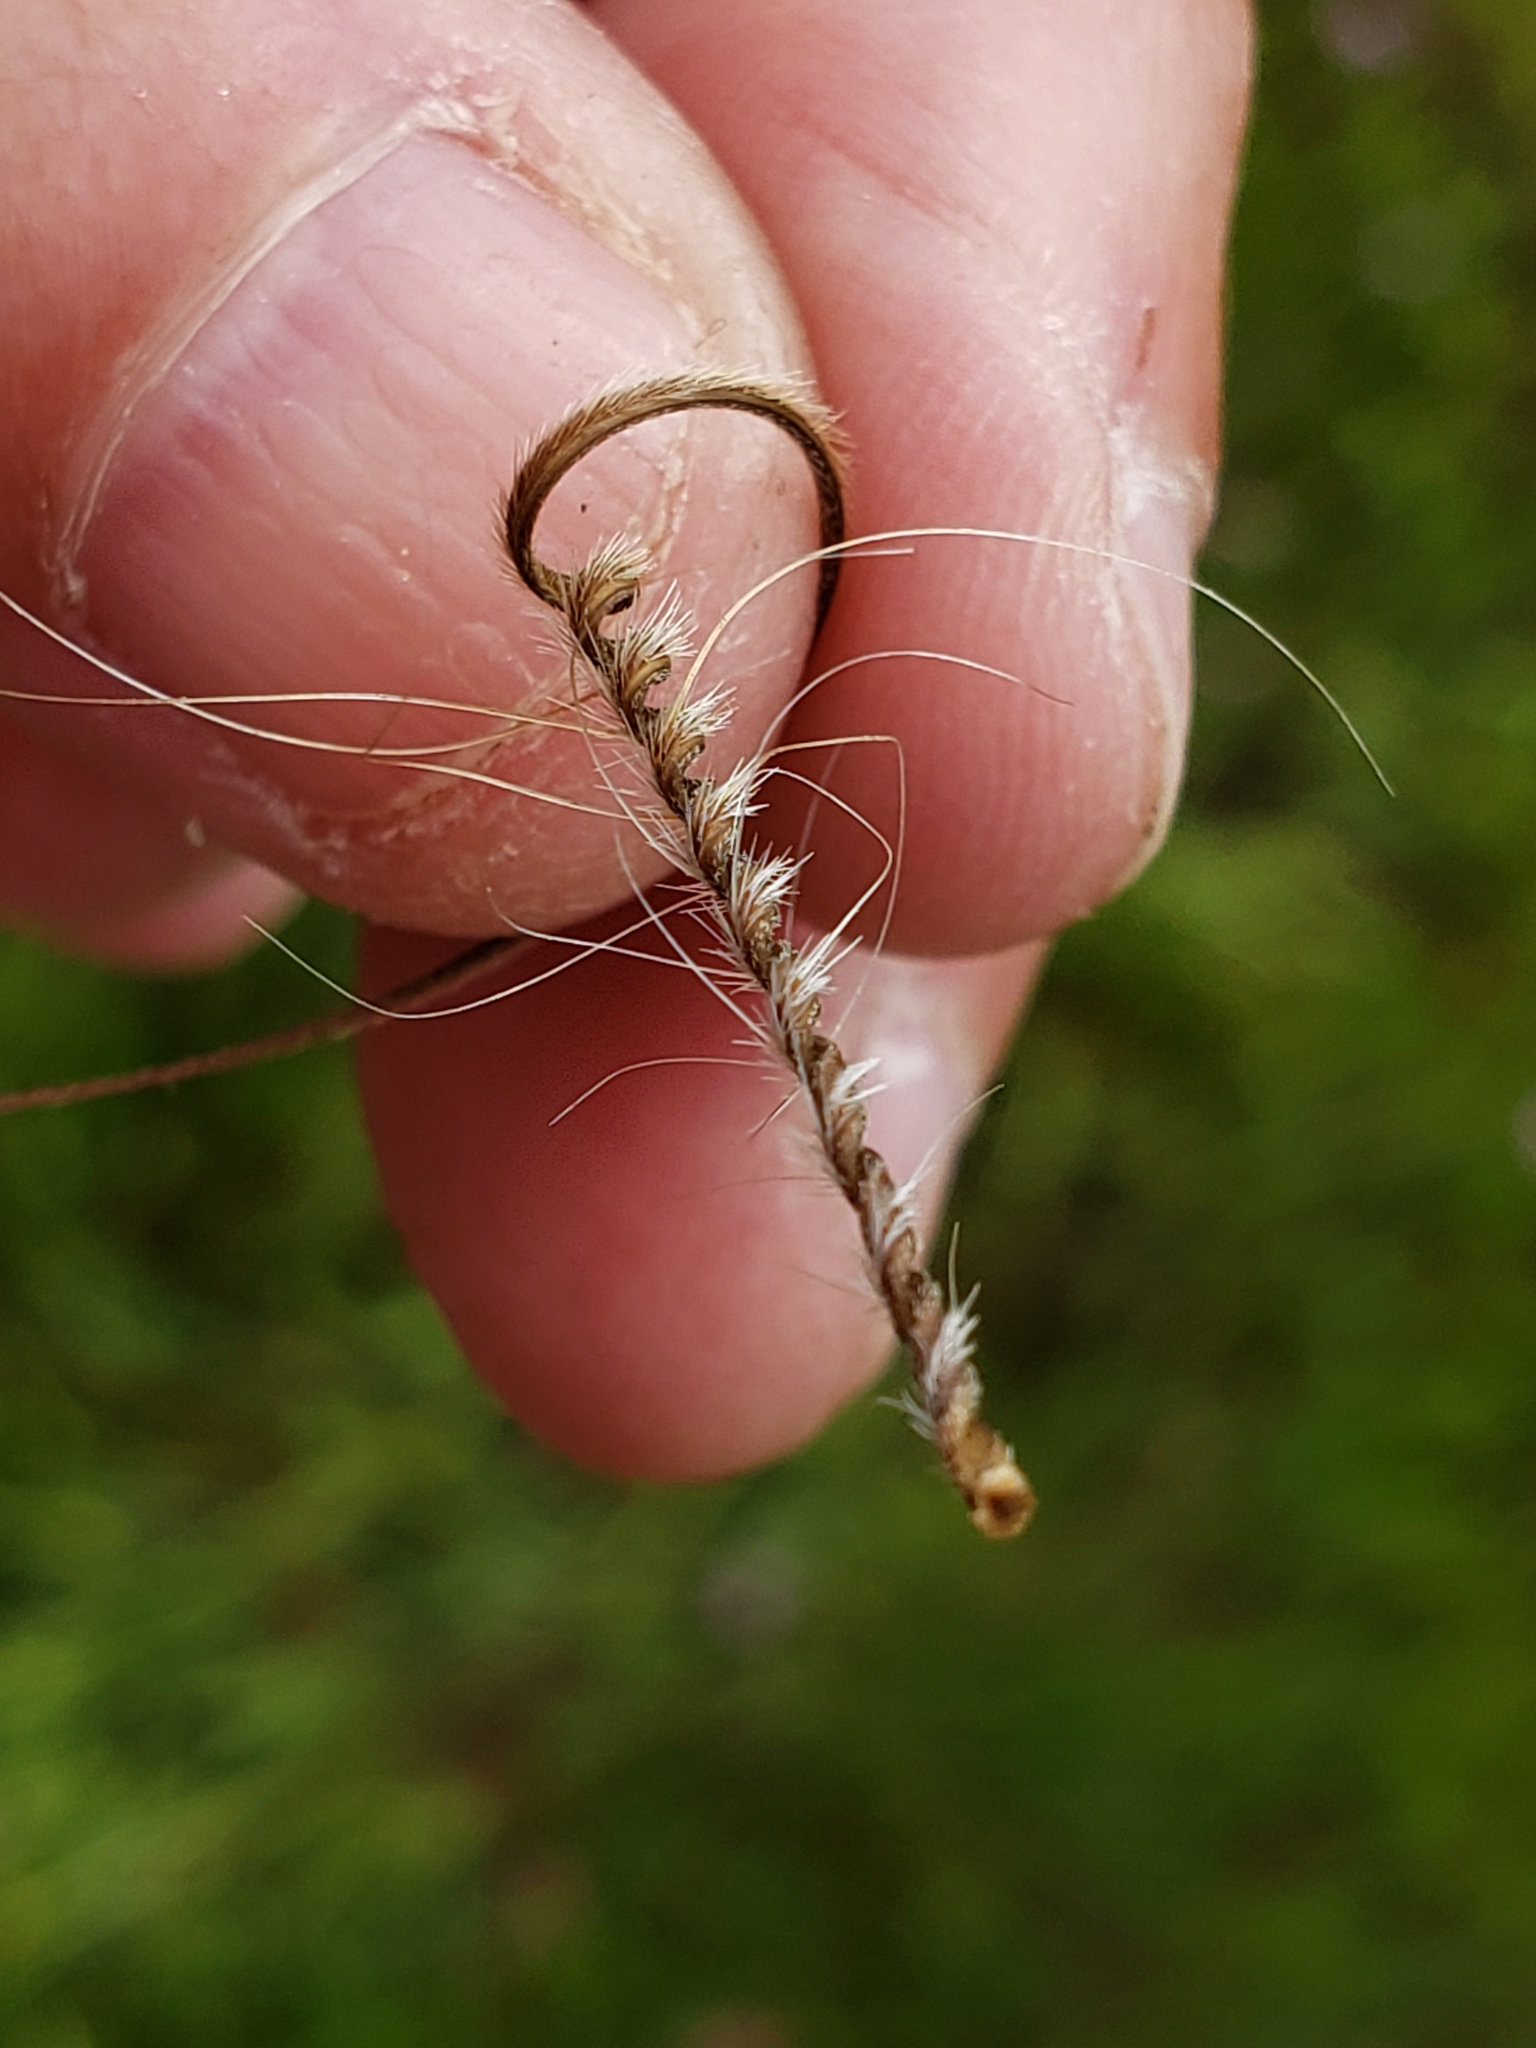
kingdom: Plantae
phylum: Tracheophyta
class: Magnoliopsida
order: Geraniales
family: Geraniaceae
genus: Erodium
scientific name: Erodium botrys
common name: Mediterranean stork's-bill
